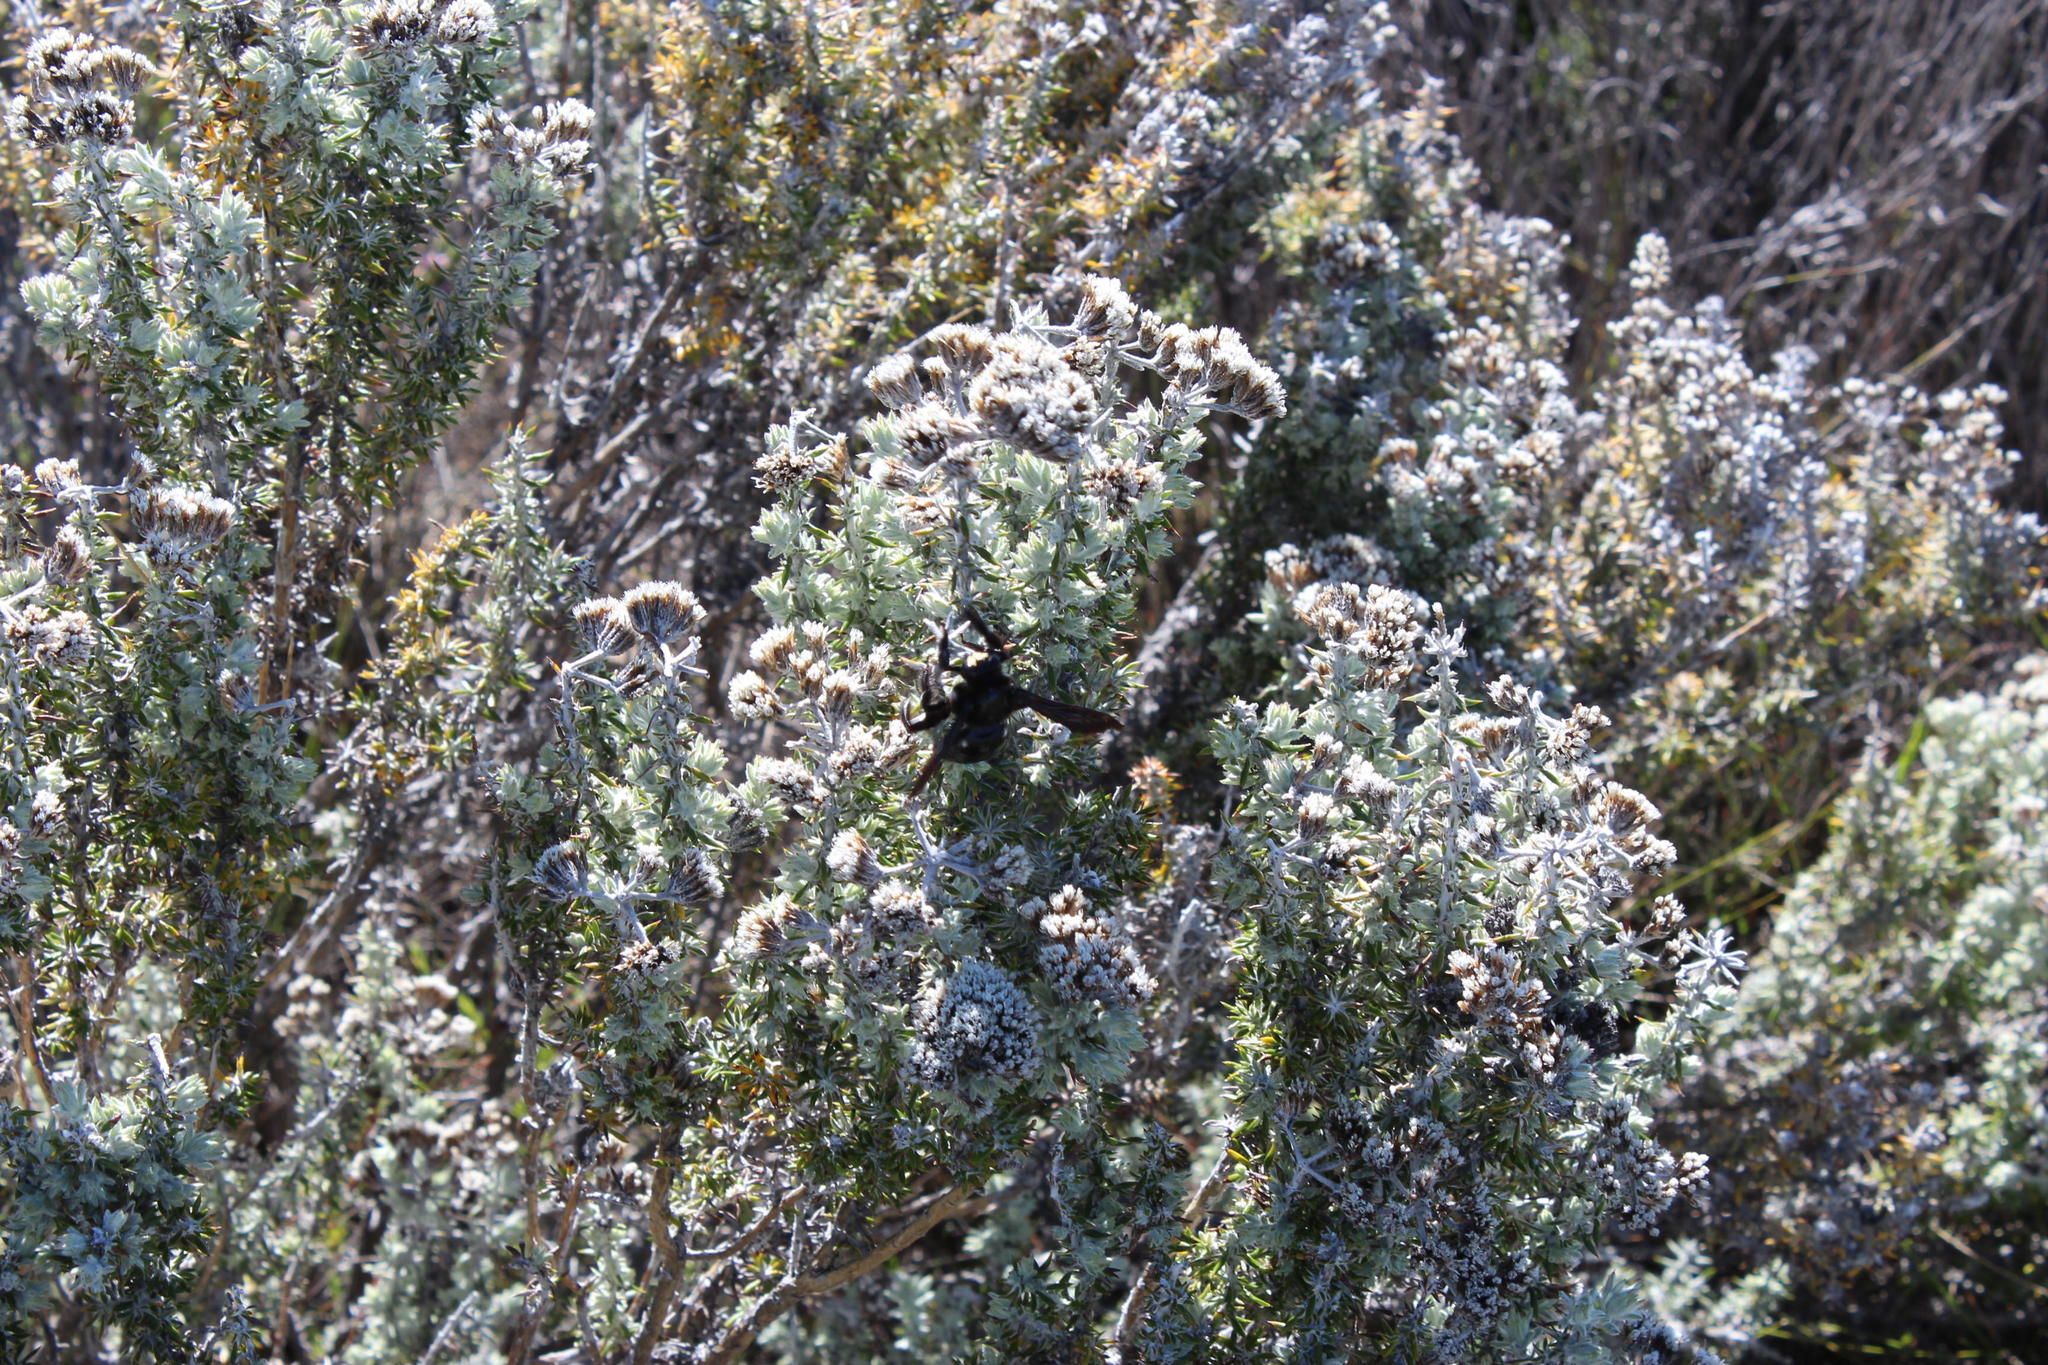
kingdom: Plantae
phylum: Tracheophyta
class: Magnoliopsida
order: Asterales
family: Asteraceae
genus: Metalasia
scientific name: Metalasia densa
